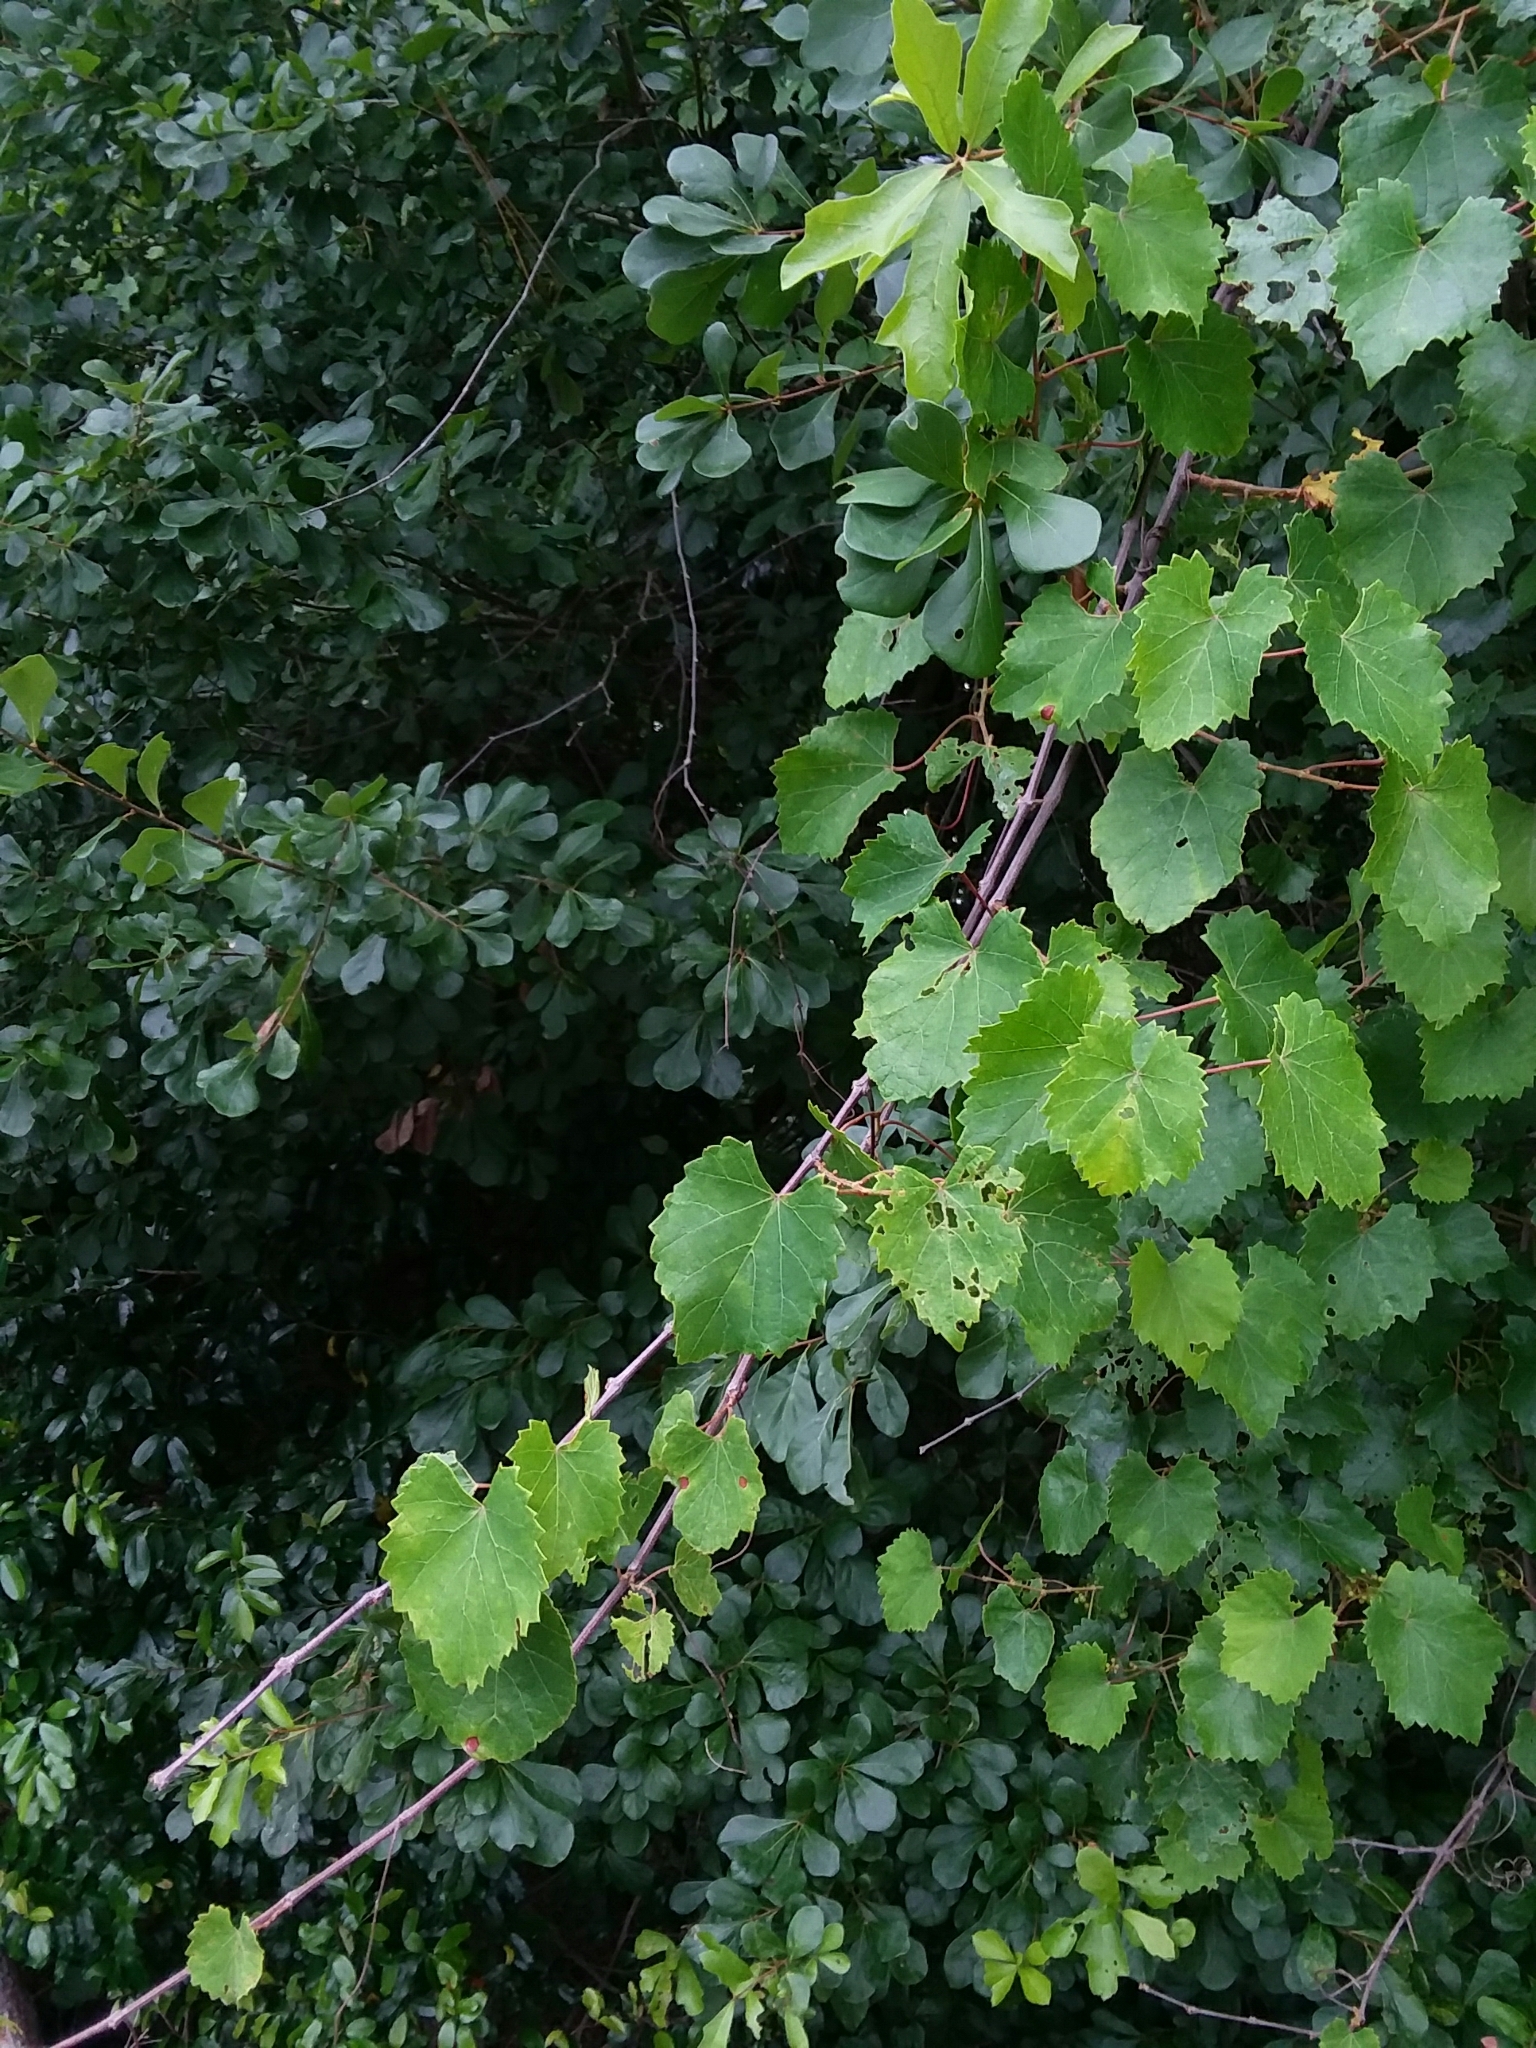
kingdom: Plantae
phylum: Tracheophyta
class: Magnoliopsida
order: Vitales
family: Vitaceae
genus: Vitis
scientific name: Vitis rotundifolia
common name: Muscadine grape
